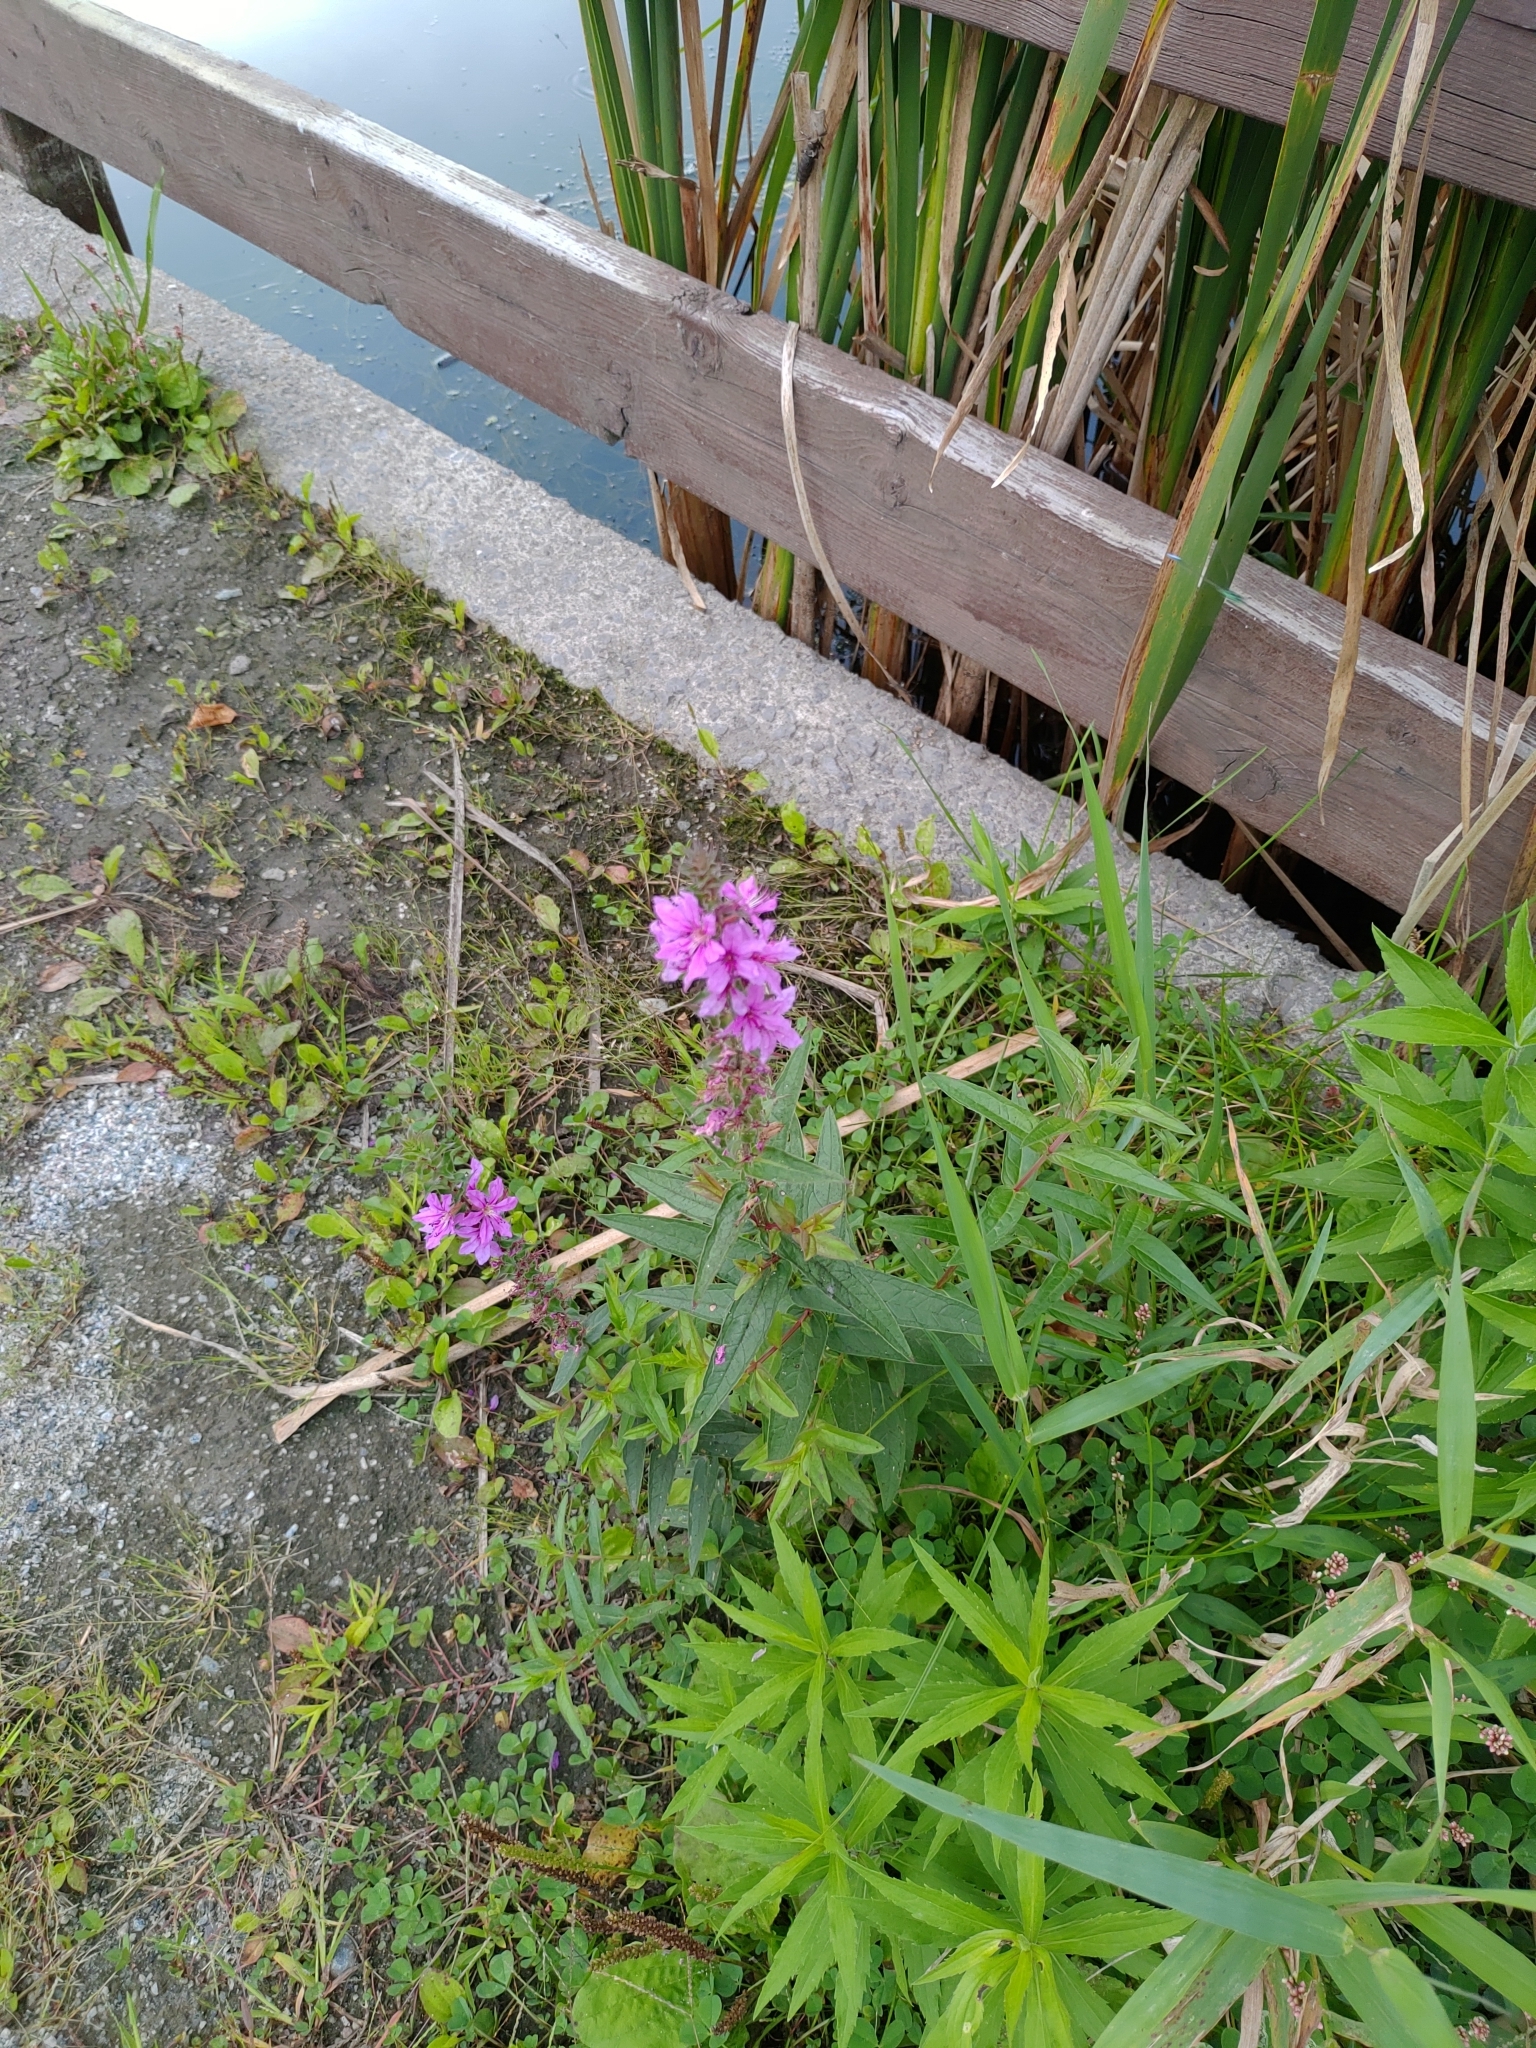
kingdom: Plantae
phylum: Tracheophyta
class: Magnoliopsida
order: Myrtales
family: Lythraceae
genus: Lythrum
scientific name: Lythrum salicaria
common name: Purple loosestrife
